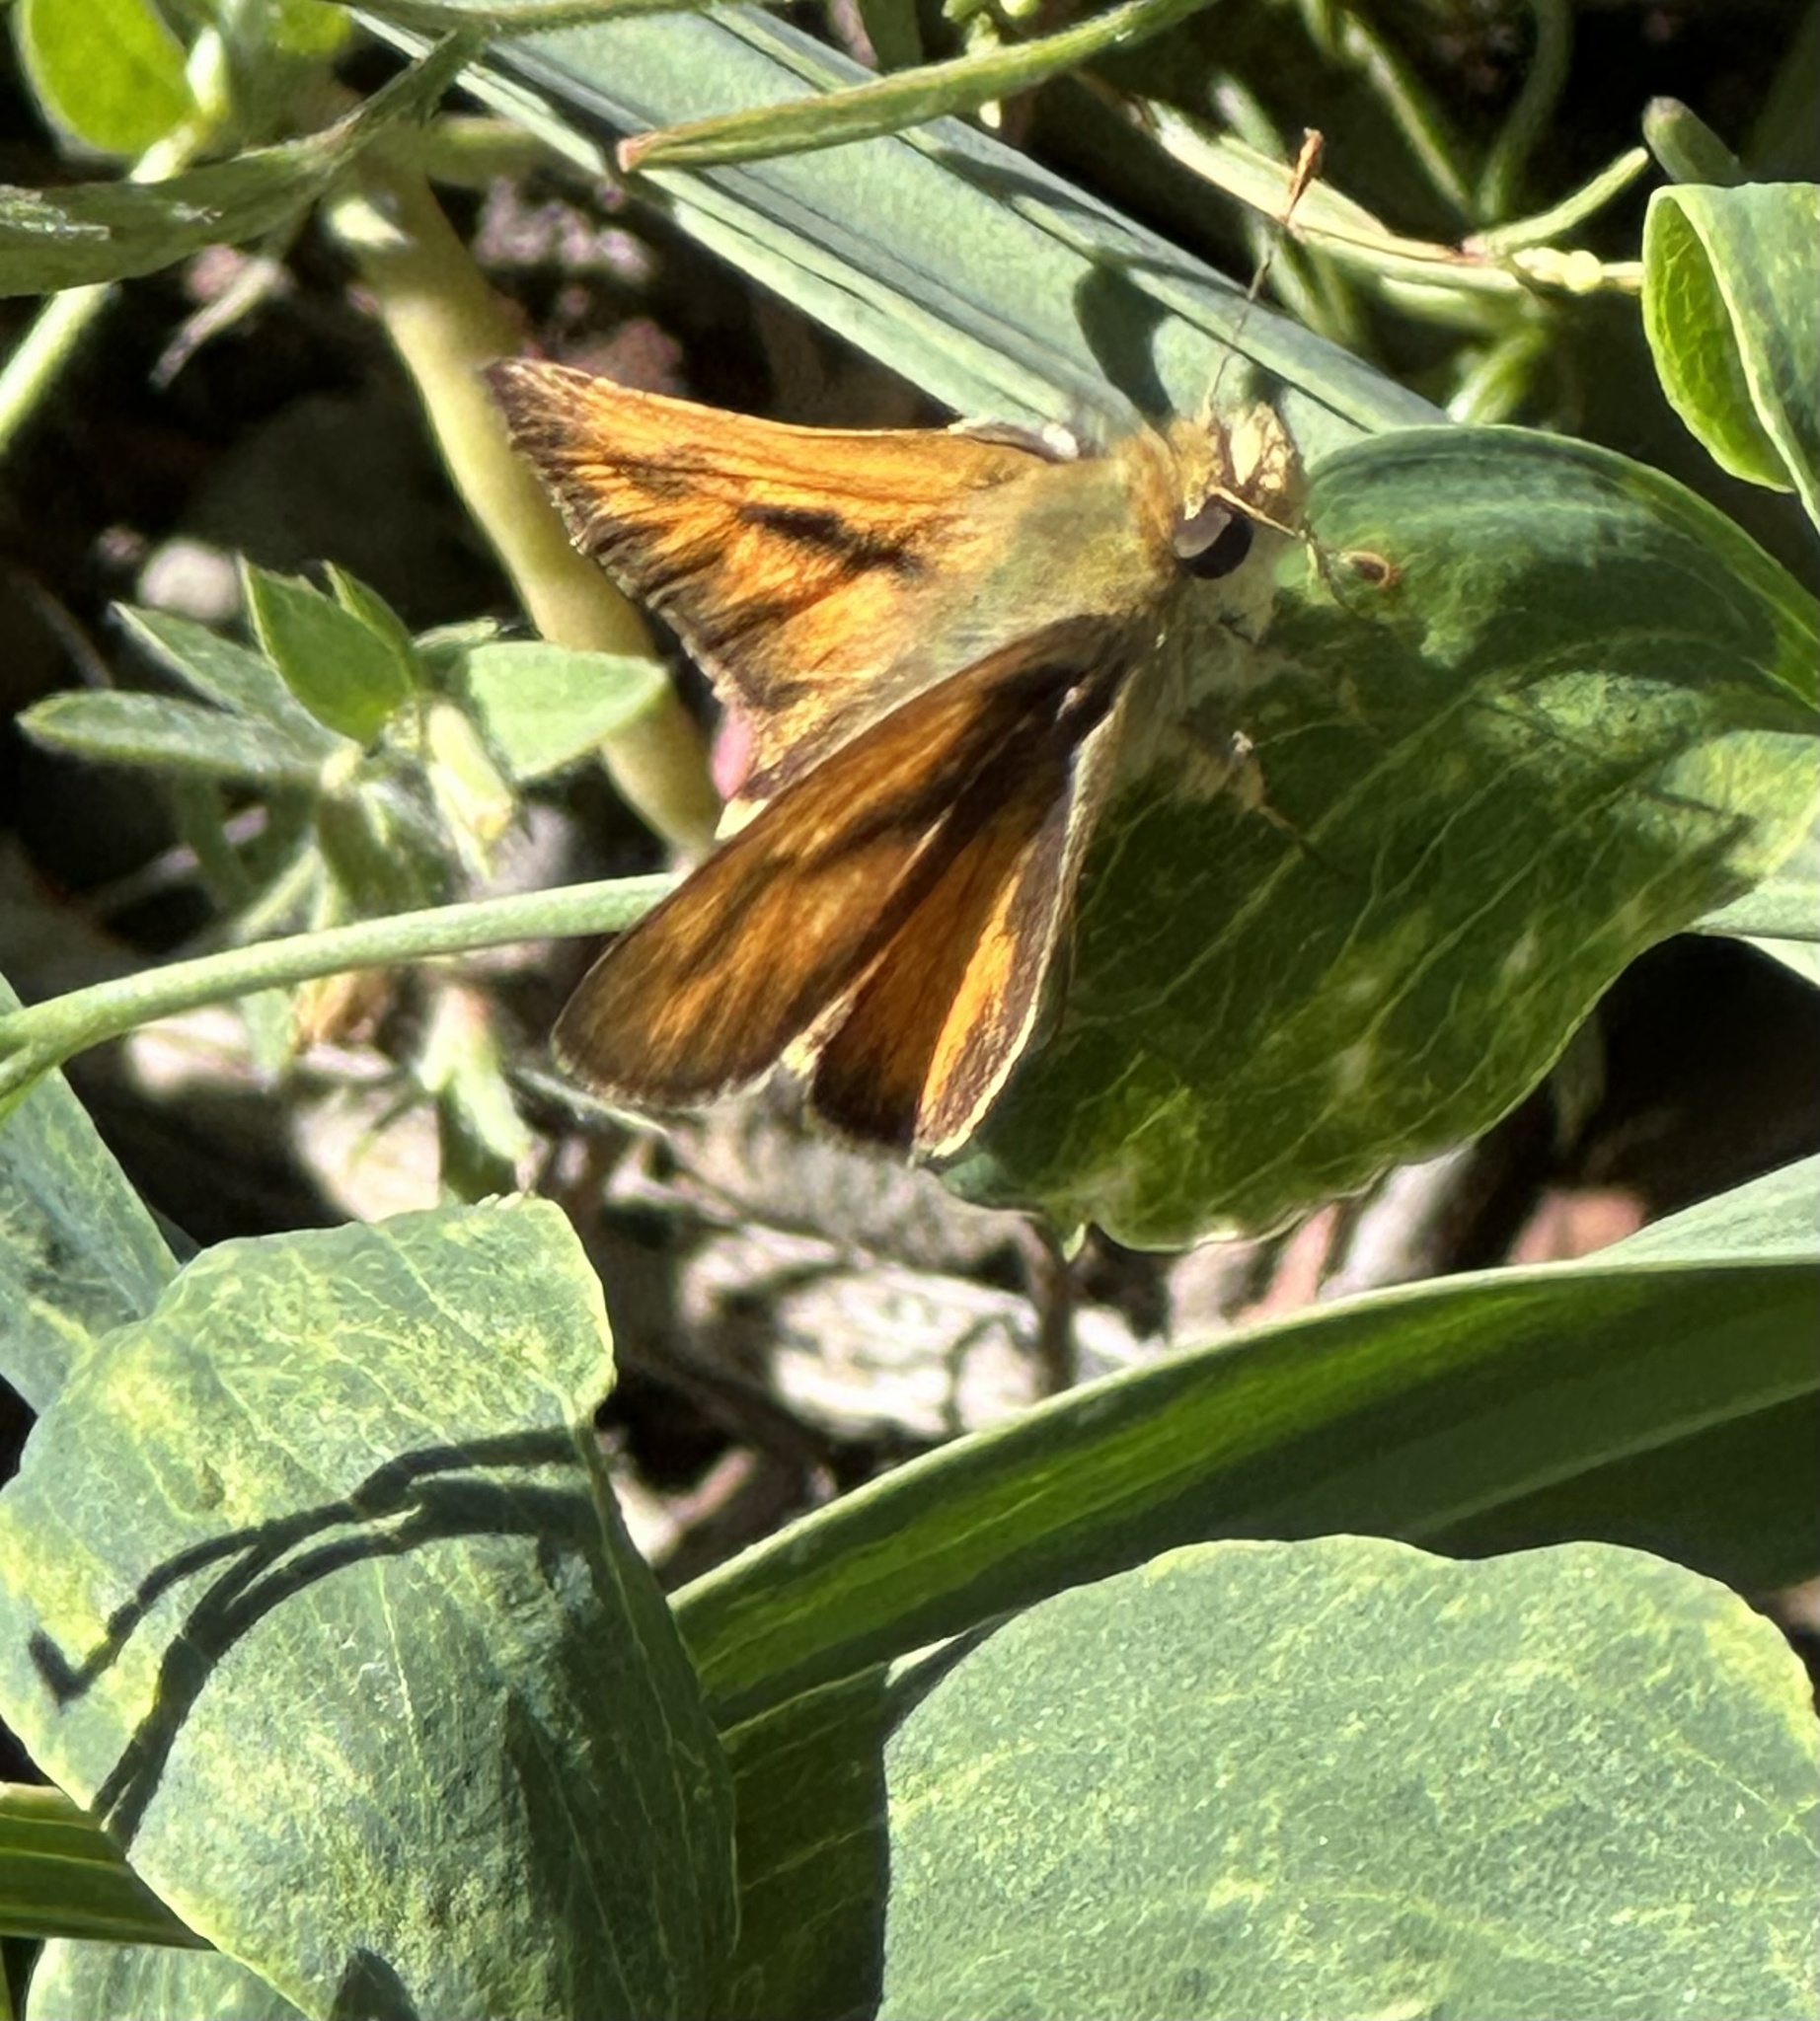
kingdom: Animalia
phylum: Arthropoda
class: Insecta
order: Lepidoptera
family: Hesperiidae
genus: Ochlodes
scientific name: Ochlodes sylvanoides
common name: Woodland skipper
